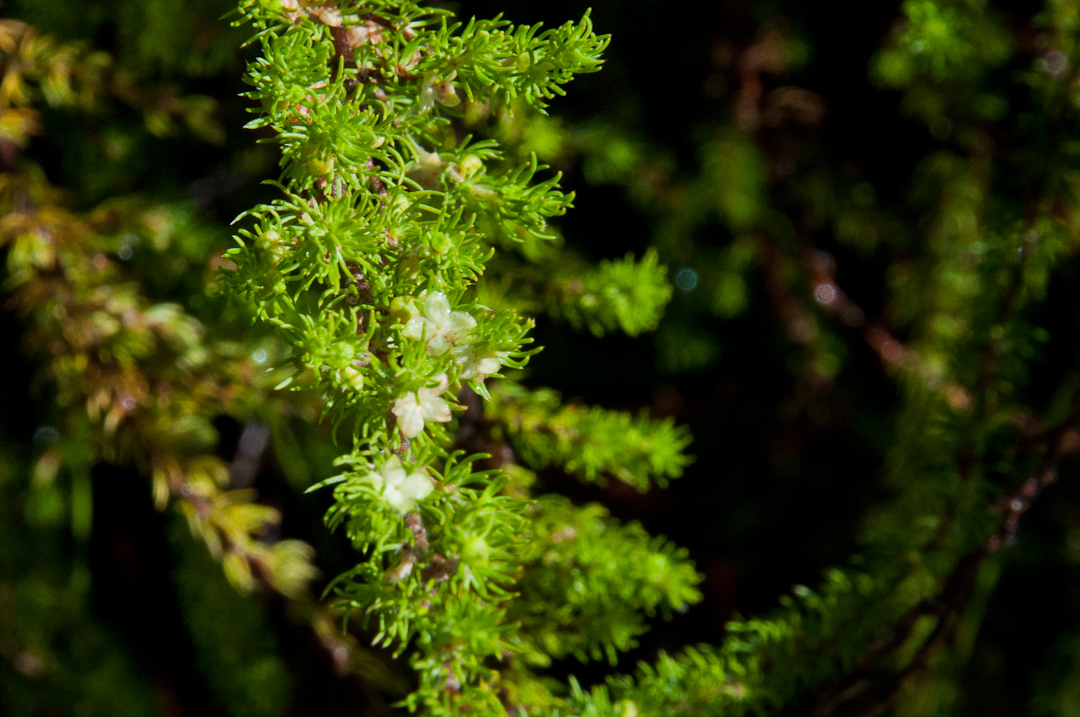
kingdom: Plantae
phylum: Tracheophyta
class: Magnoliopsida
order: Rosales
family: Rosaceae
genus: Cliffortia
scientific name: Cliffortia subsetacea
